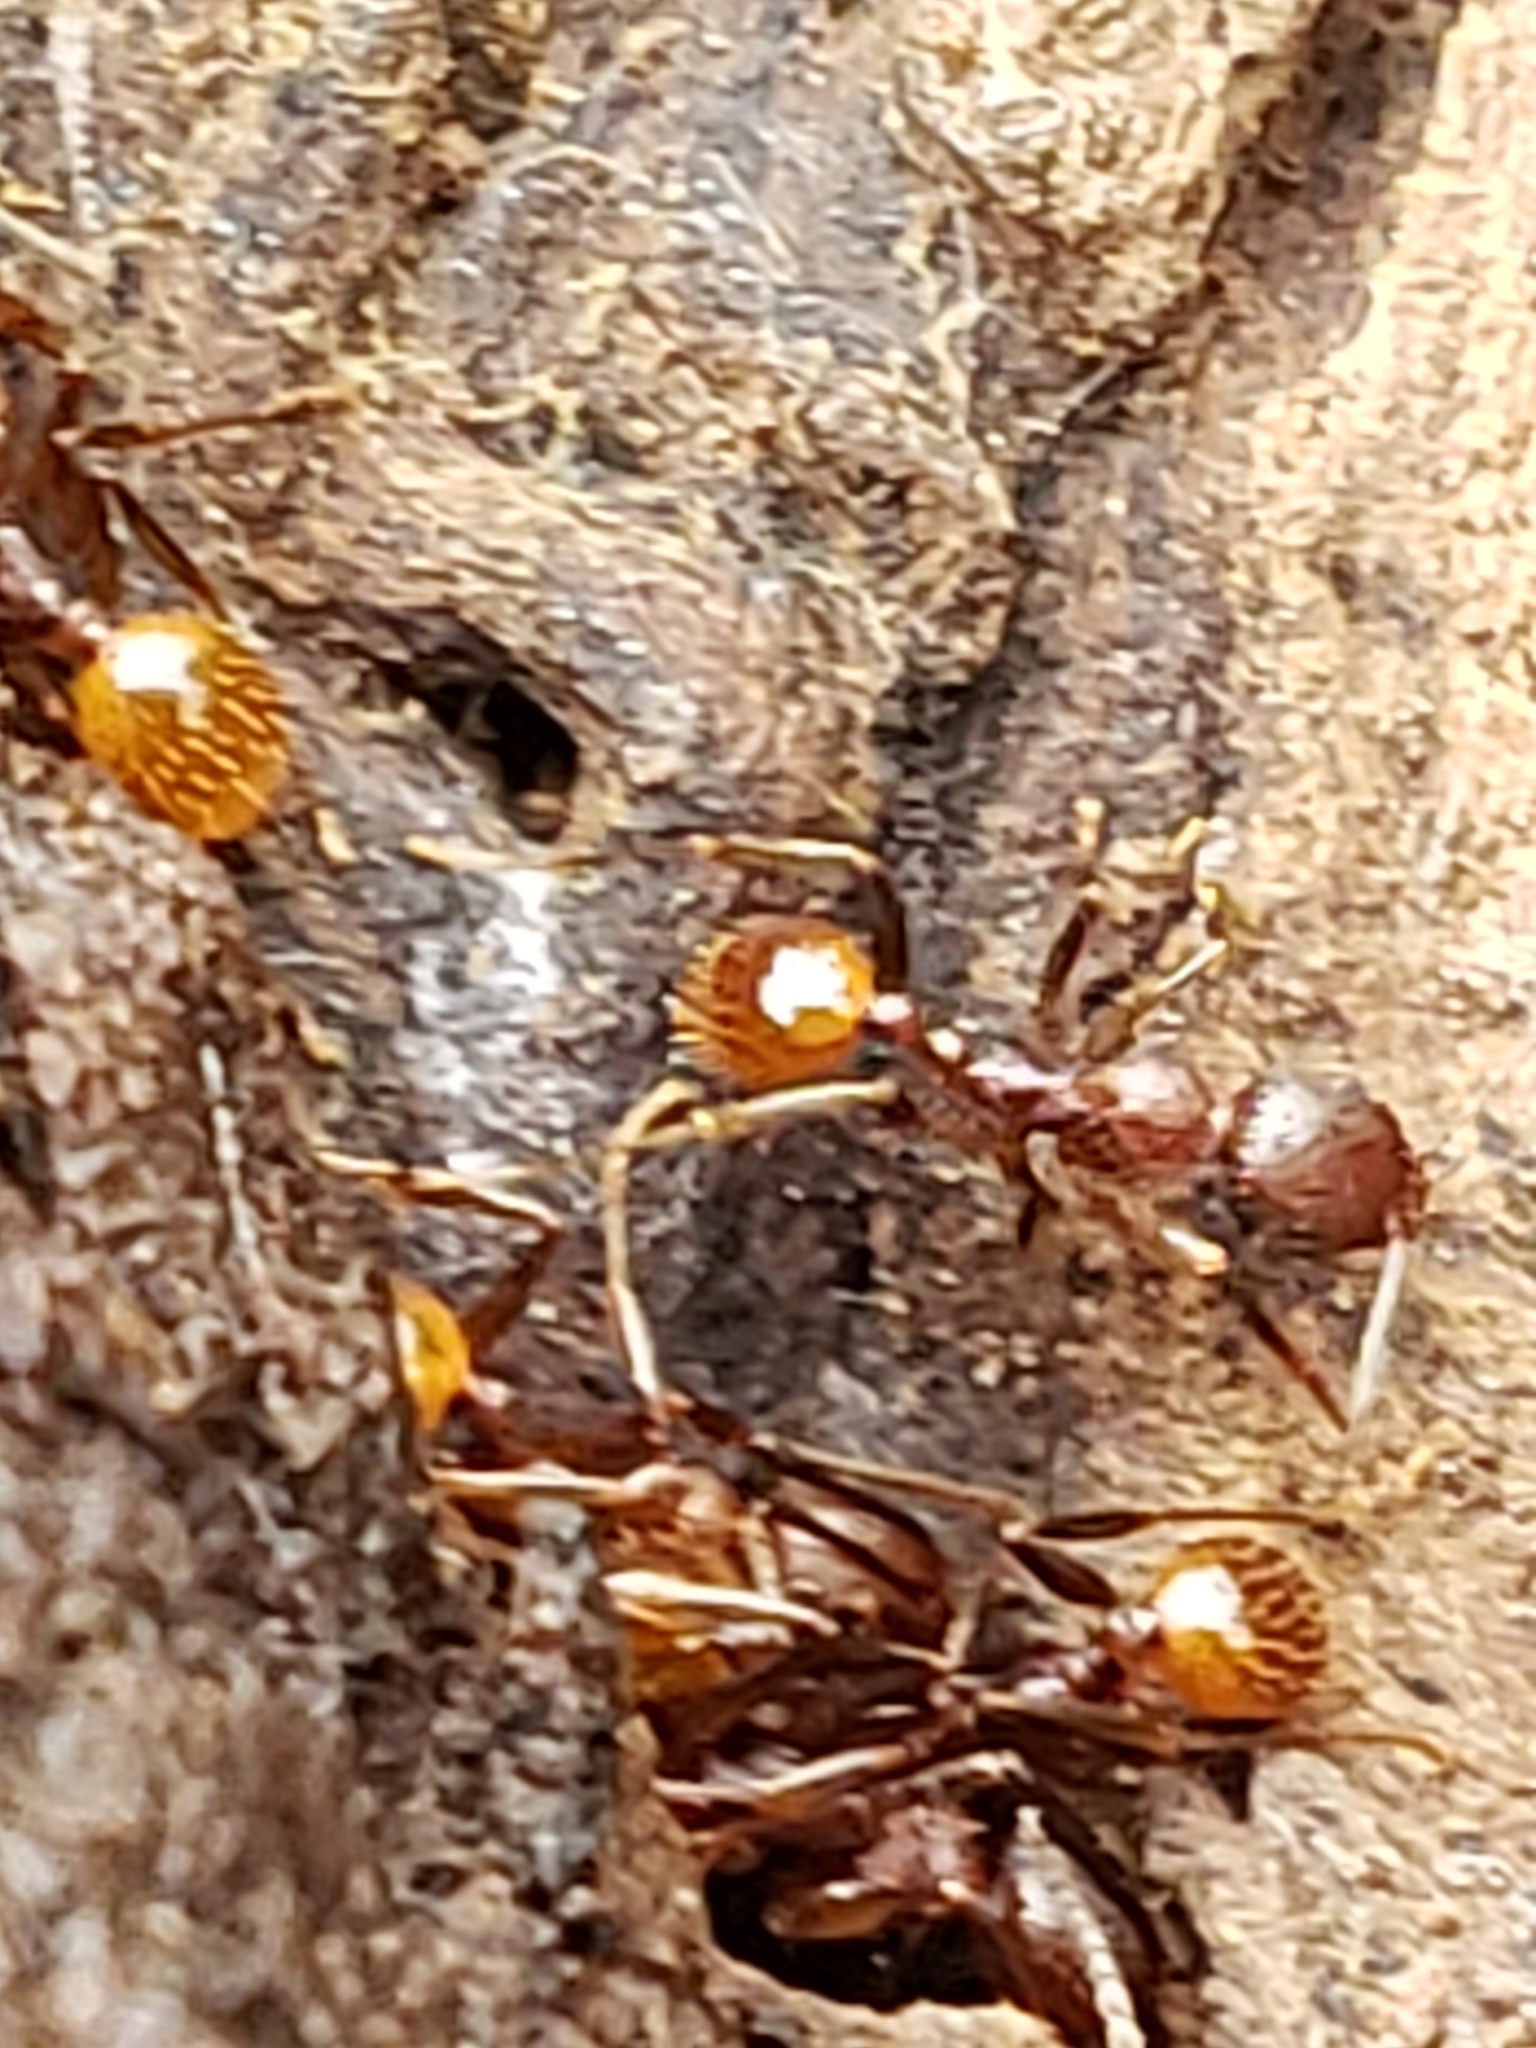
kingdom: Animalia
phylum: Arthropoda
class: Insecta
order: Hymenoptera
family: Formicidae
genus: Aphaenogaster
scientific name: Aphaenogaster tennesseensis
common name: Tennessee thread-waisted ant
